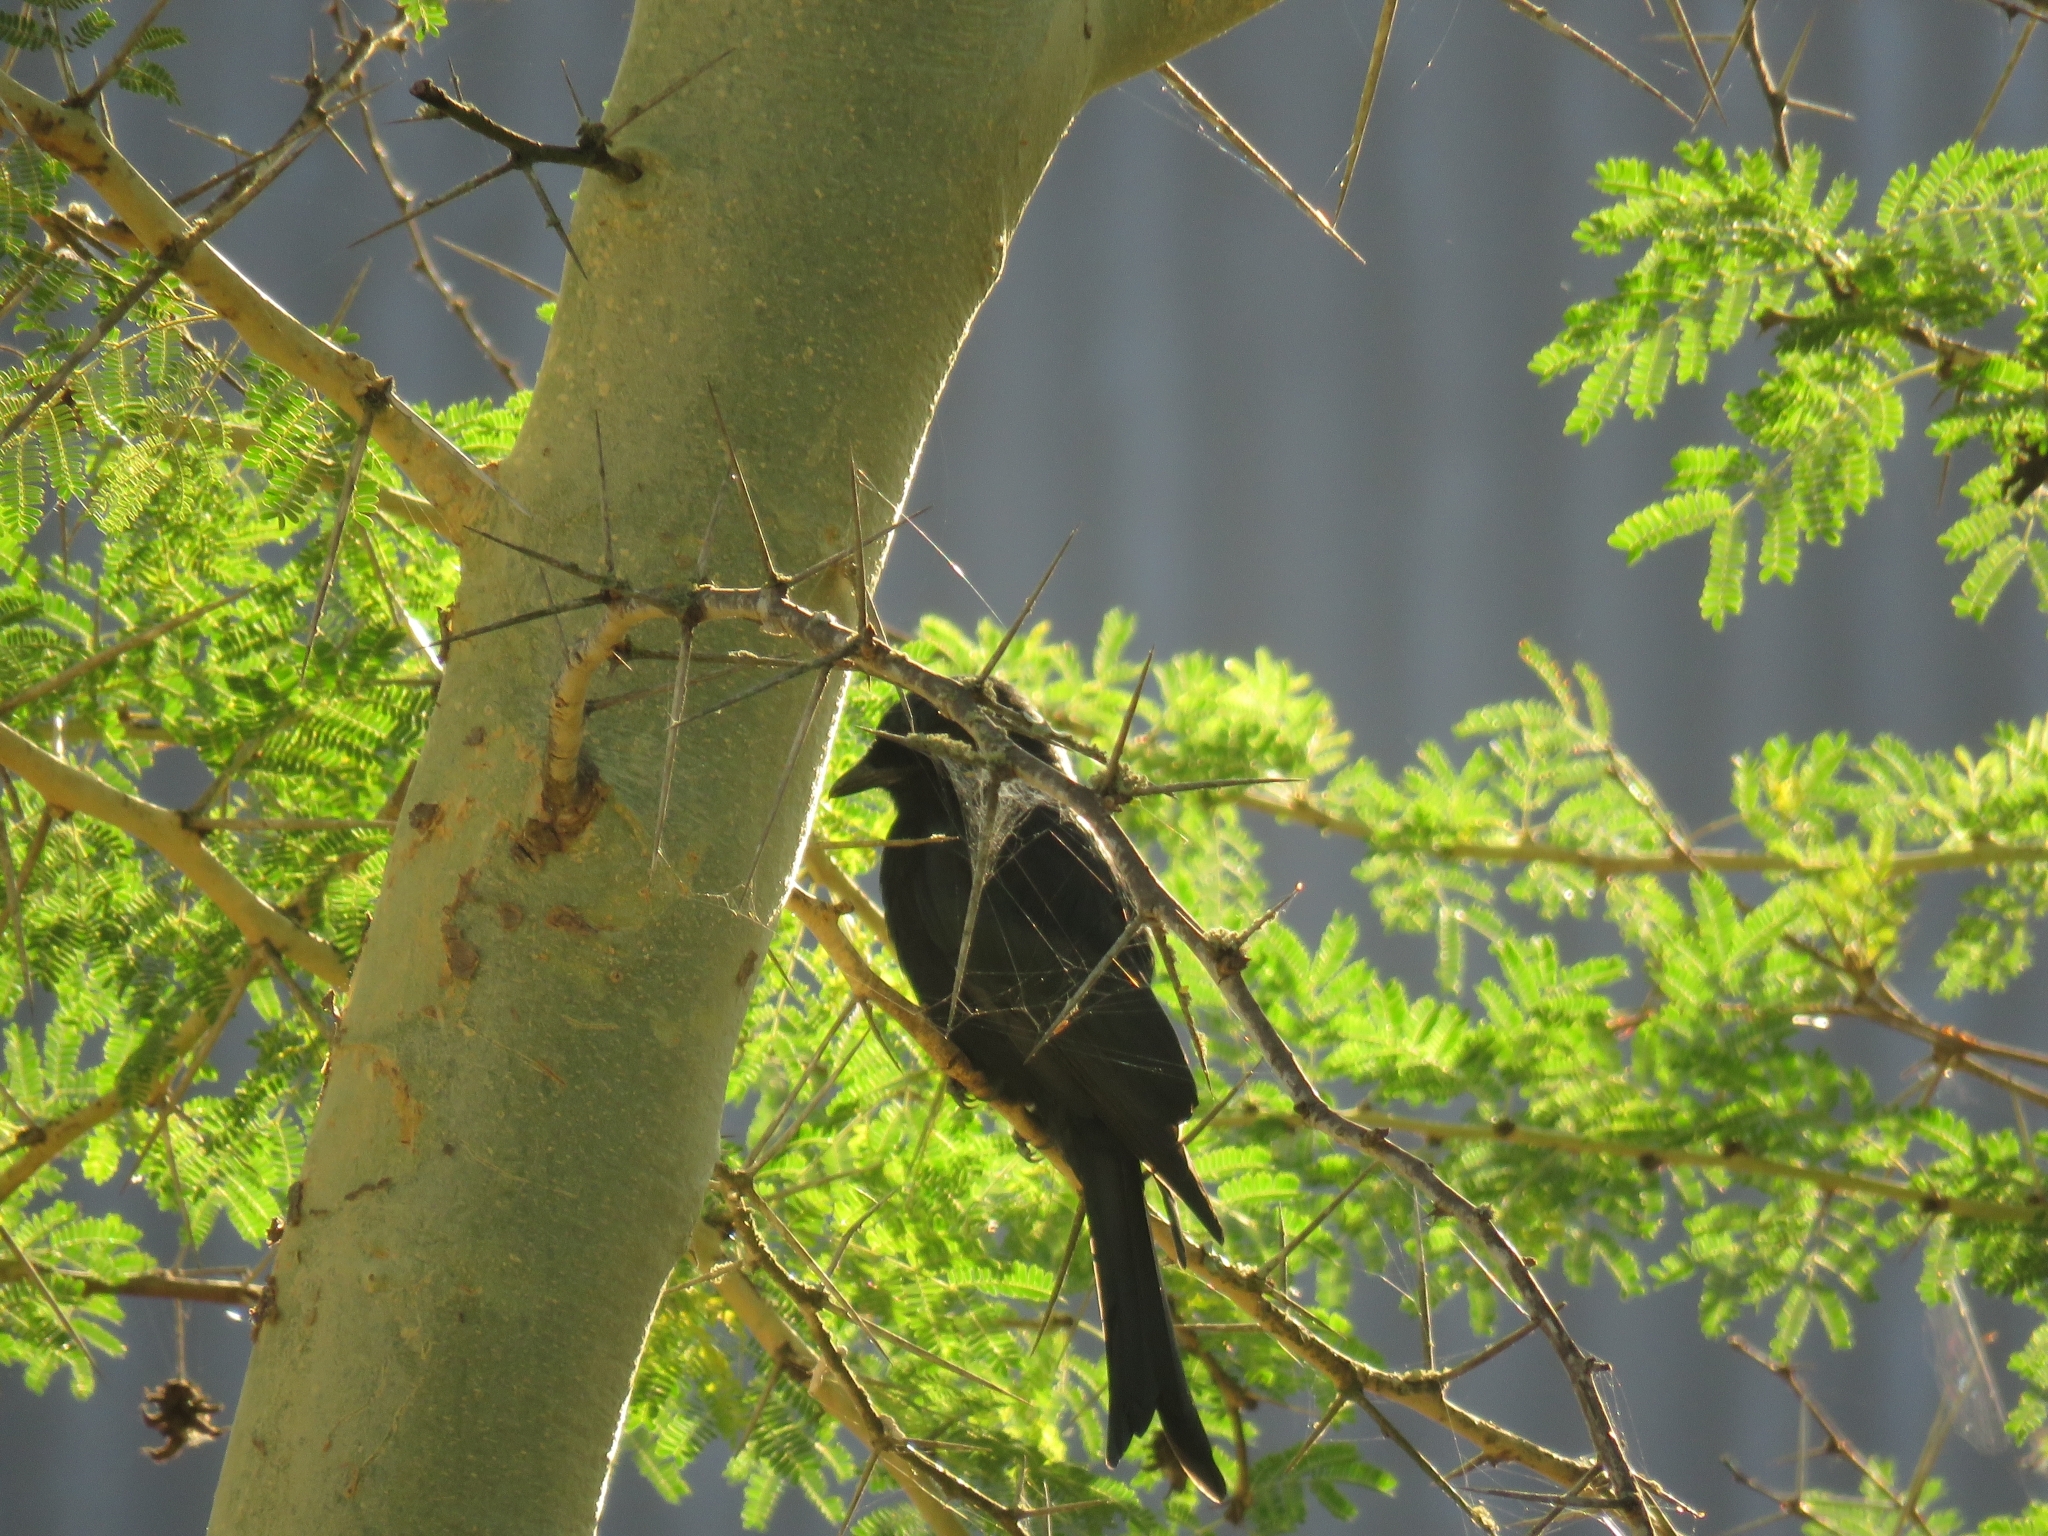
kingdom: Animalia
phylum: Chordata
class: Aves
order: Passeriformes
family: Dicruridae
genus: Dicrurus
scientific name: Dicrurus adsimilis
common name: Fork-tailed drongo
